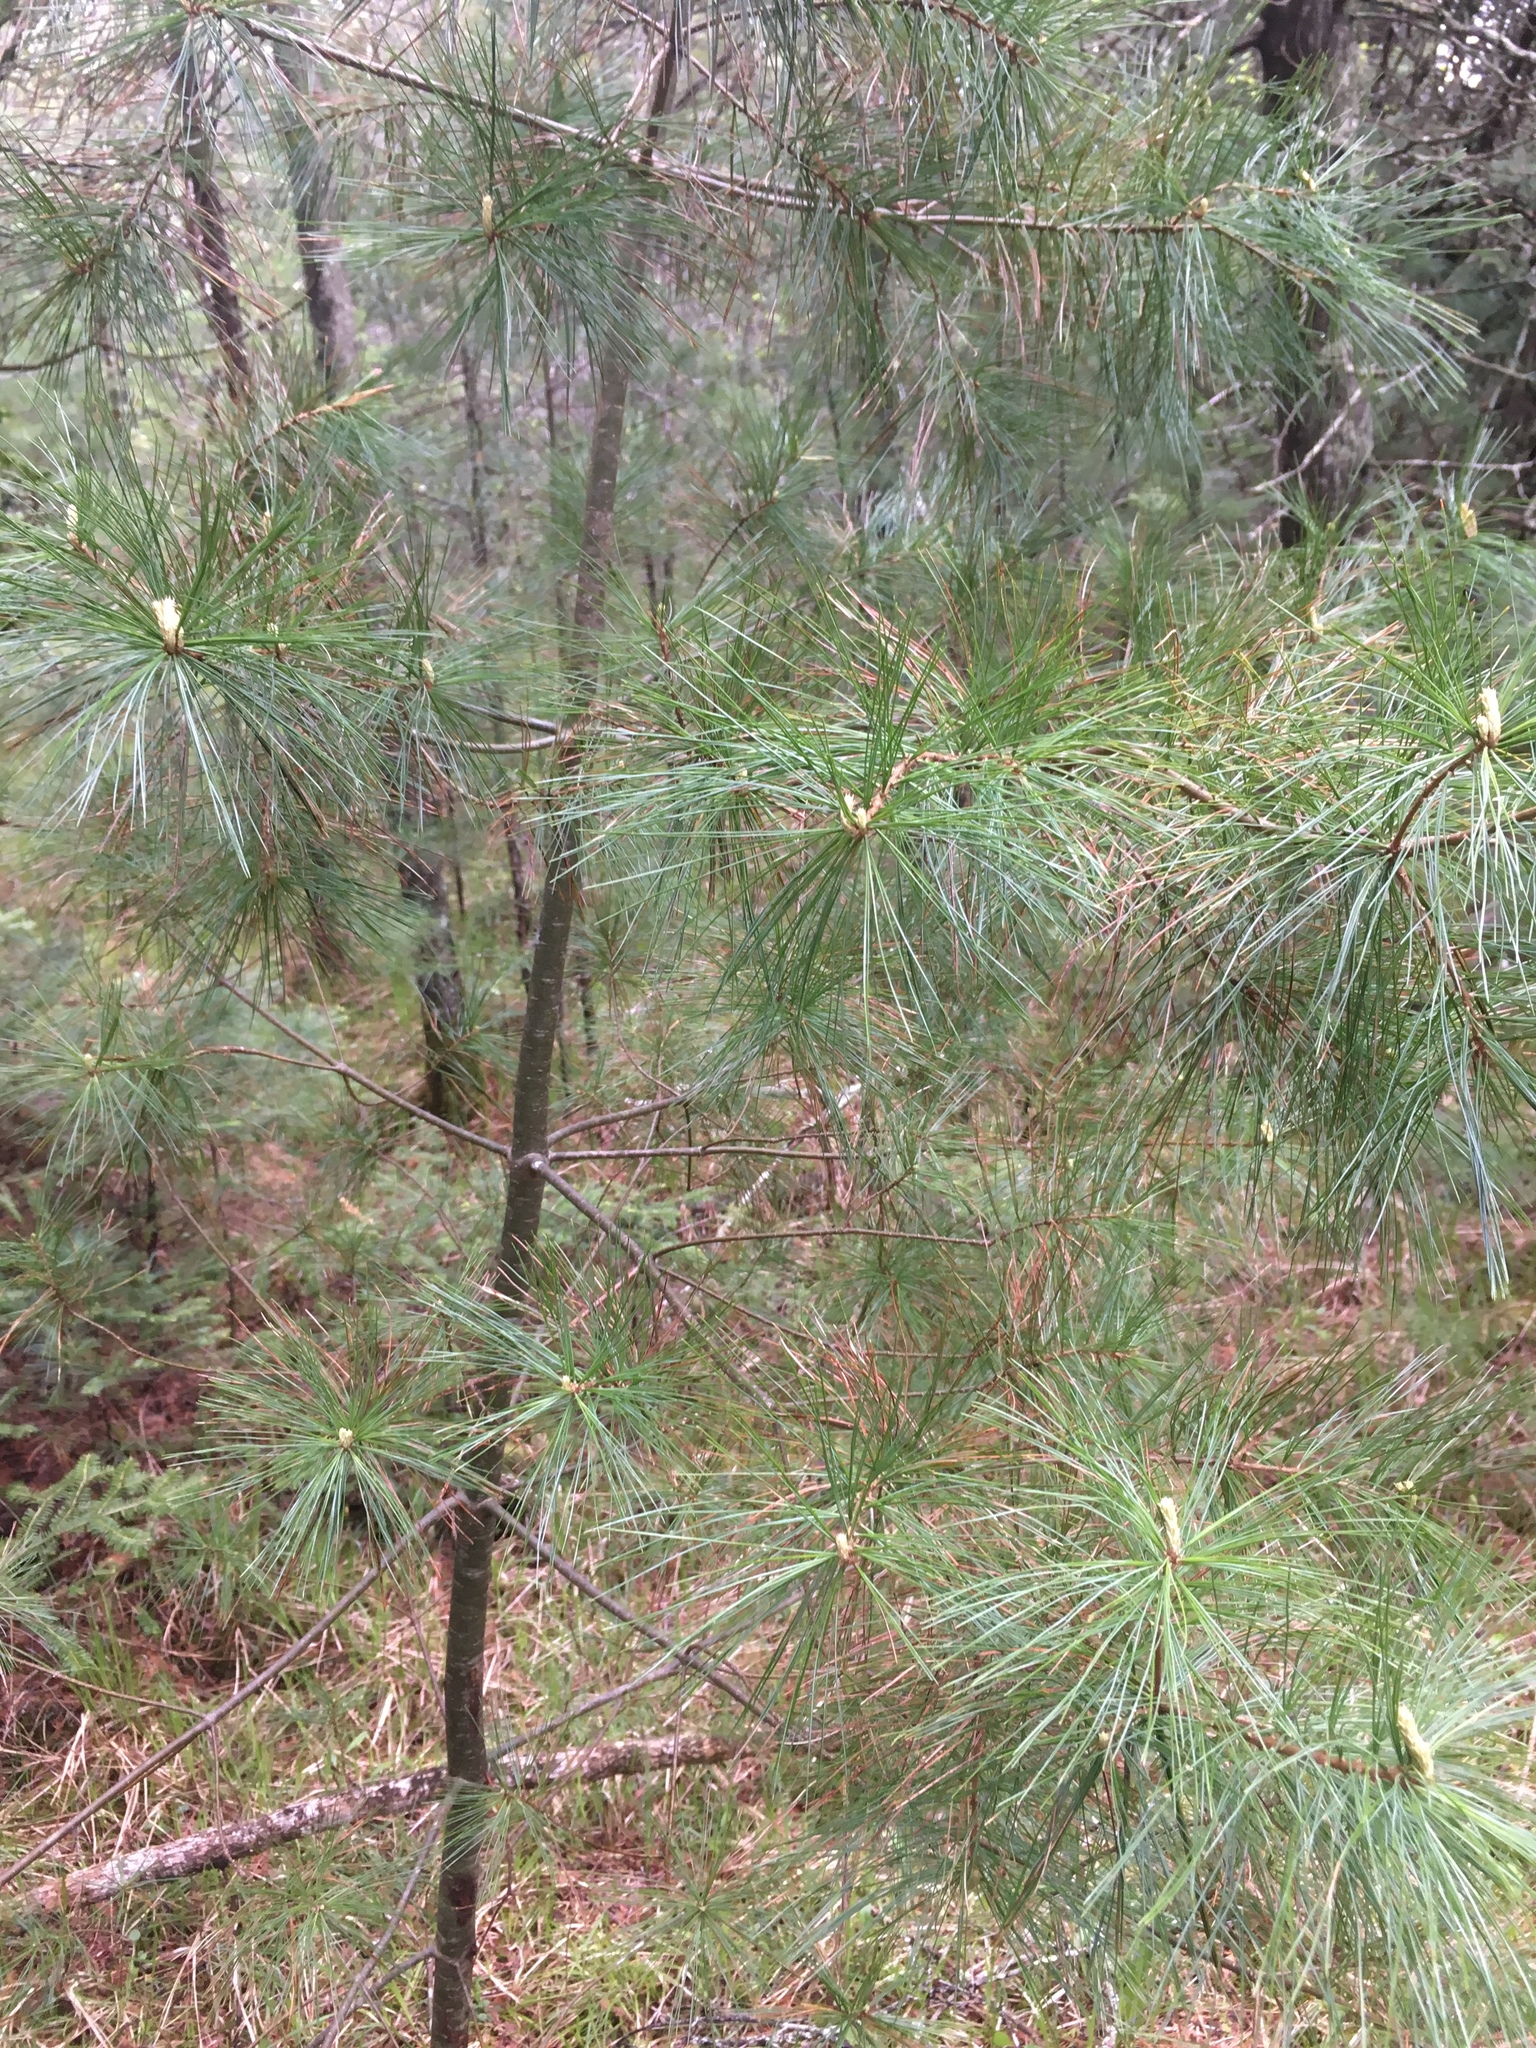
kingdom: Plantae
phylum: Tracheophyta
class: Pinopsida
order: Pinales
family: Pinaceae
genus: Pinus
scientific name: Pinus strobus
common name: Weymouth pine
